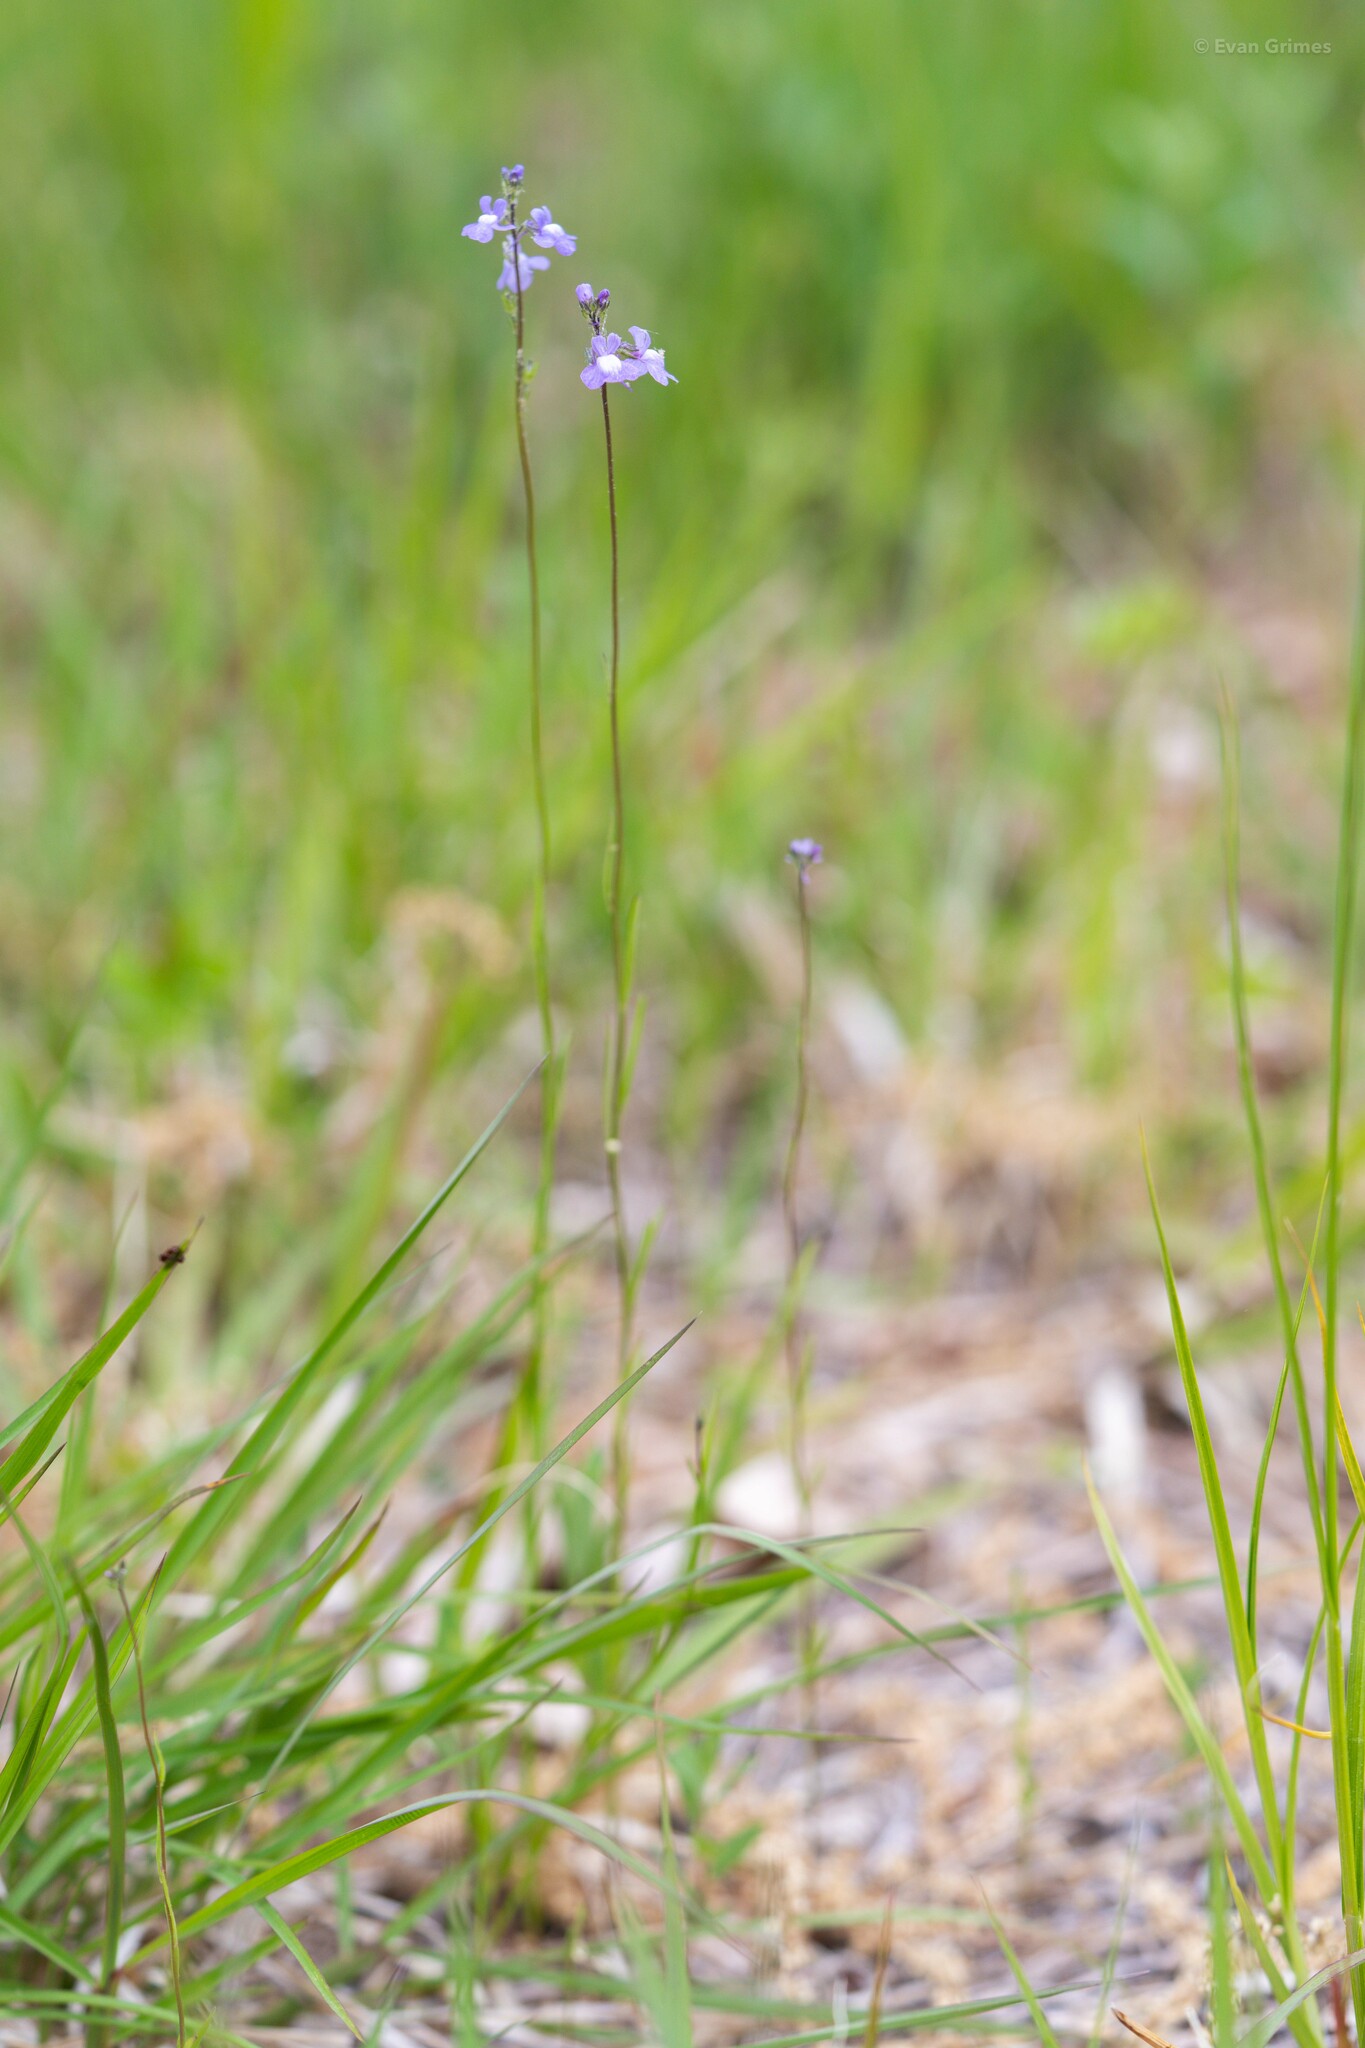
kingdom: Plantae
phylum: Tracheophyta
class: Magnoliopsida
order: Lamiales
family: Plantaginaceae
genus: Nuttallanthus
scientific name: Nuttallanthus canadensis
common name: Blue toadflax
